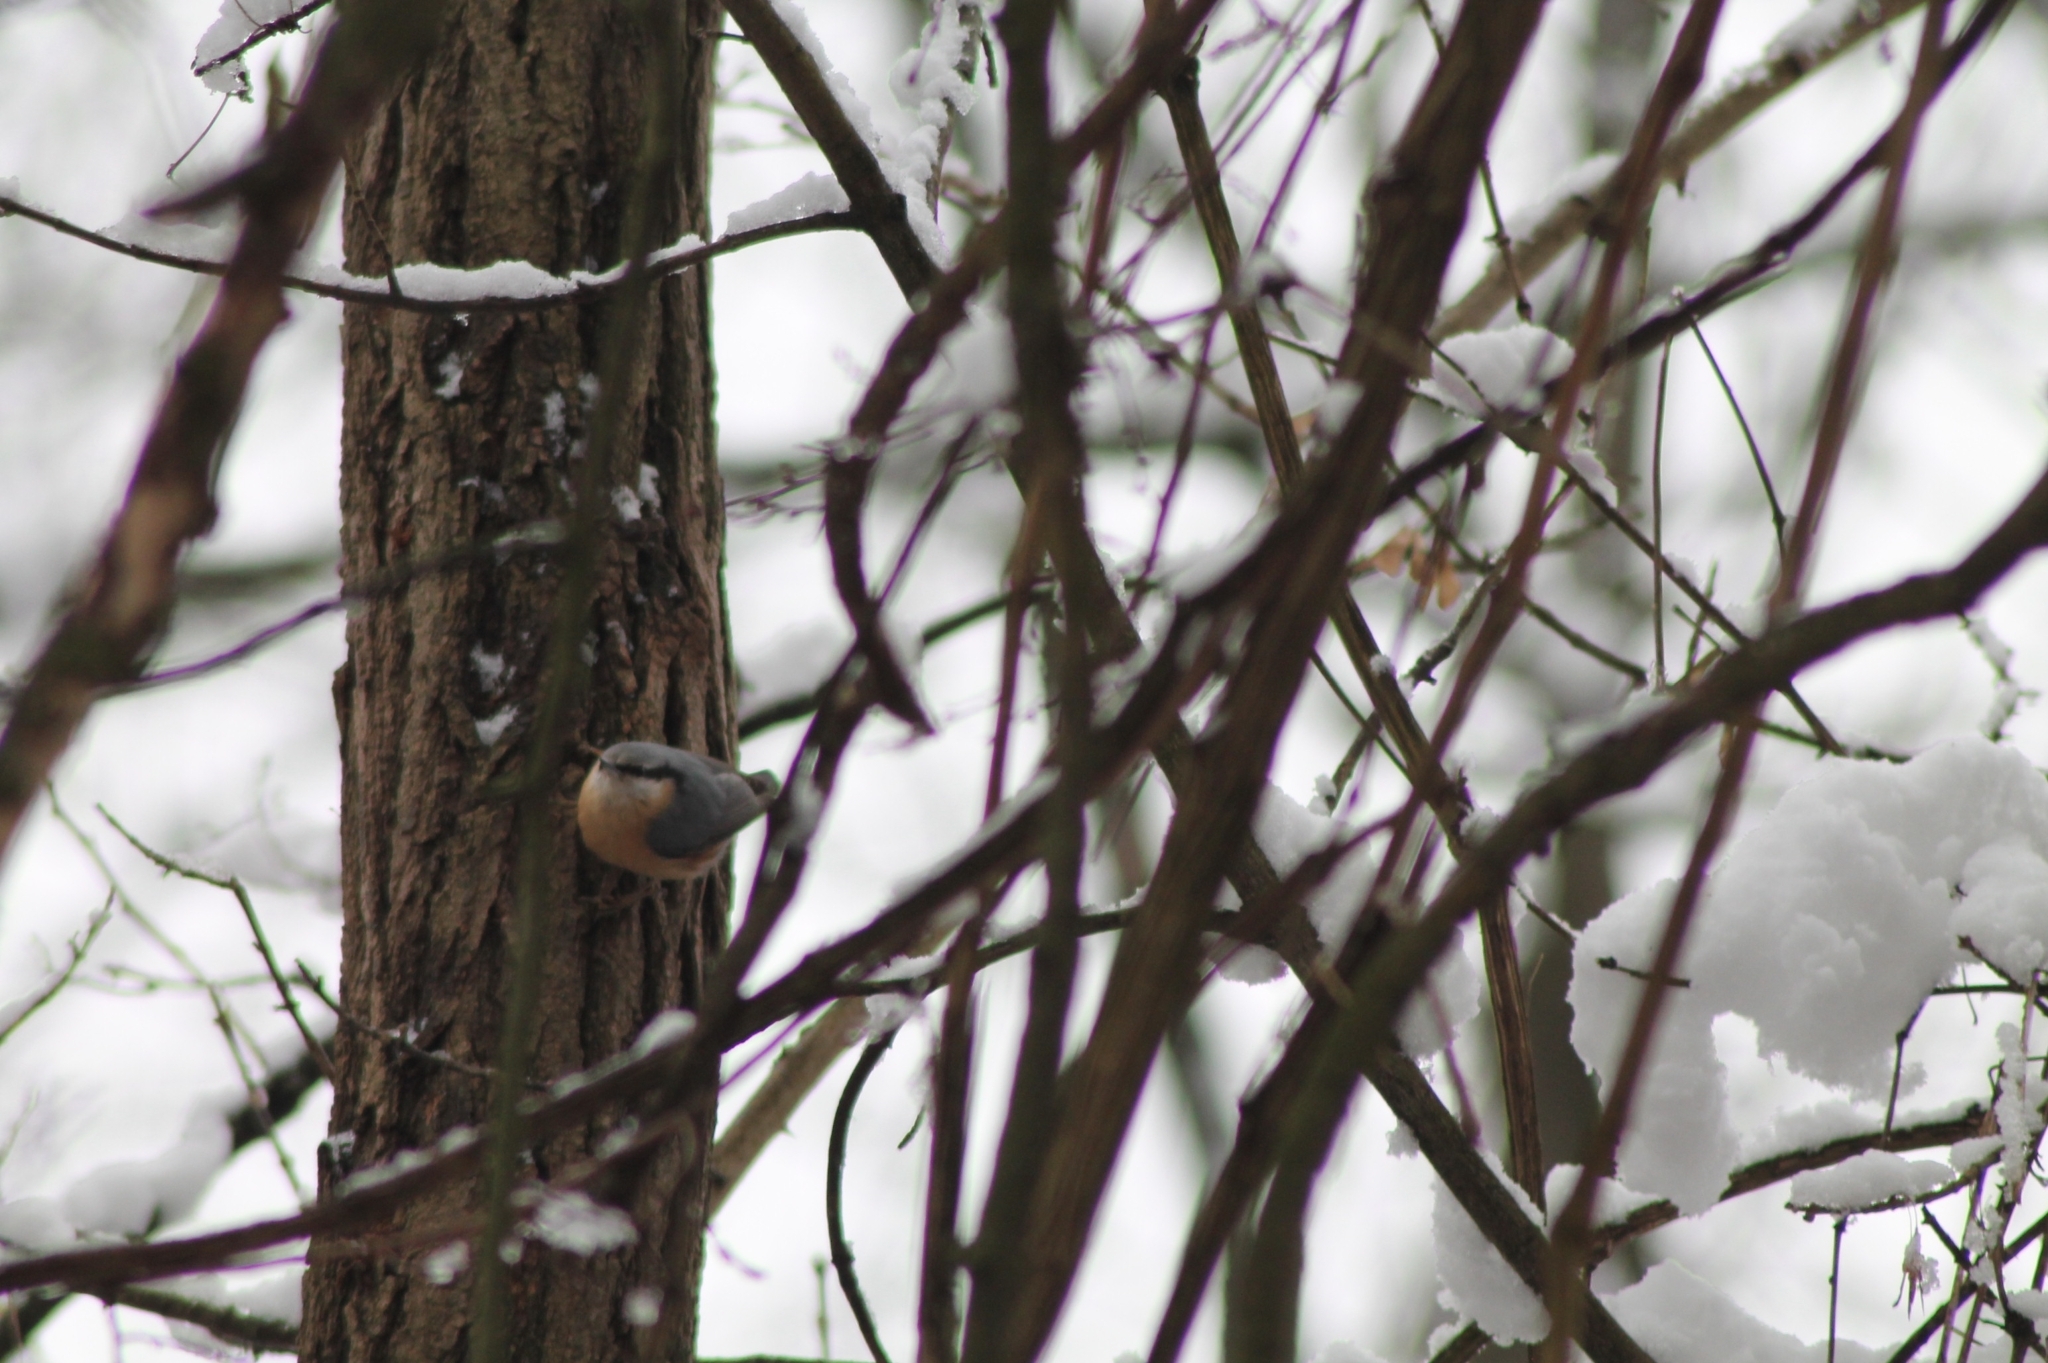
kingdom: Animalia
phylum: Chordata
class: Aves
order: Passeriformes
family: Sittidae
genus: Sitta
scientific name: Sitta europaea
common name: Eurasian nuthatch
